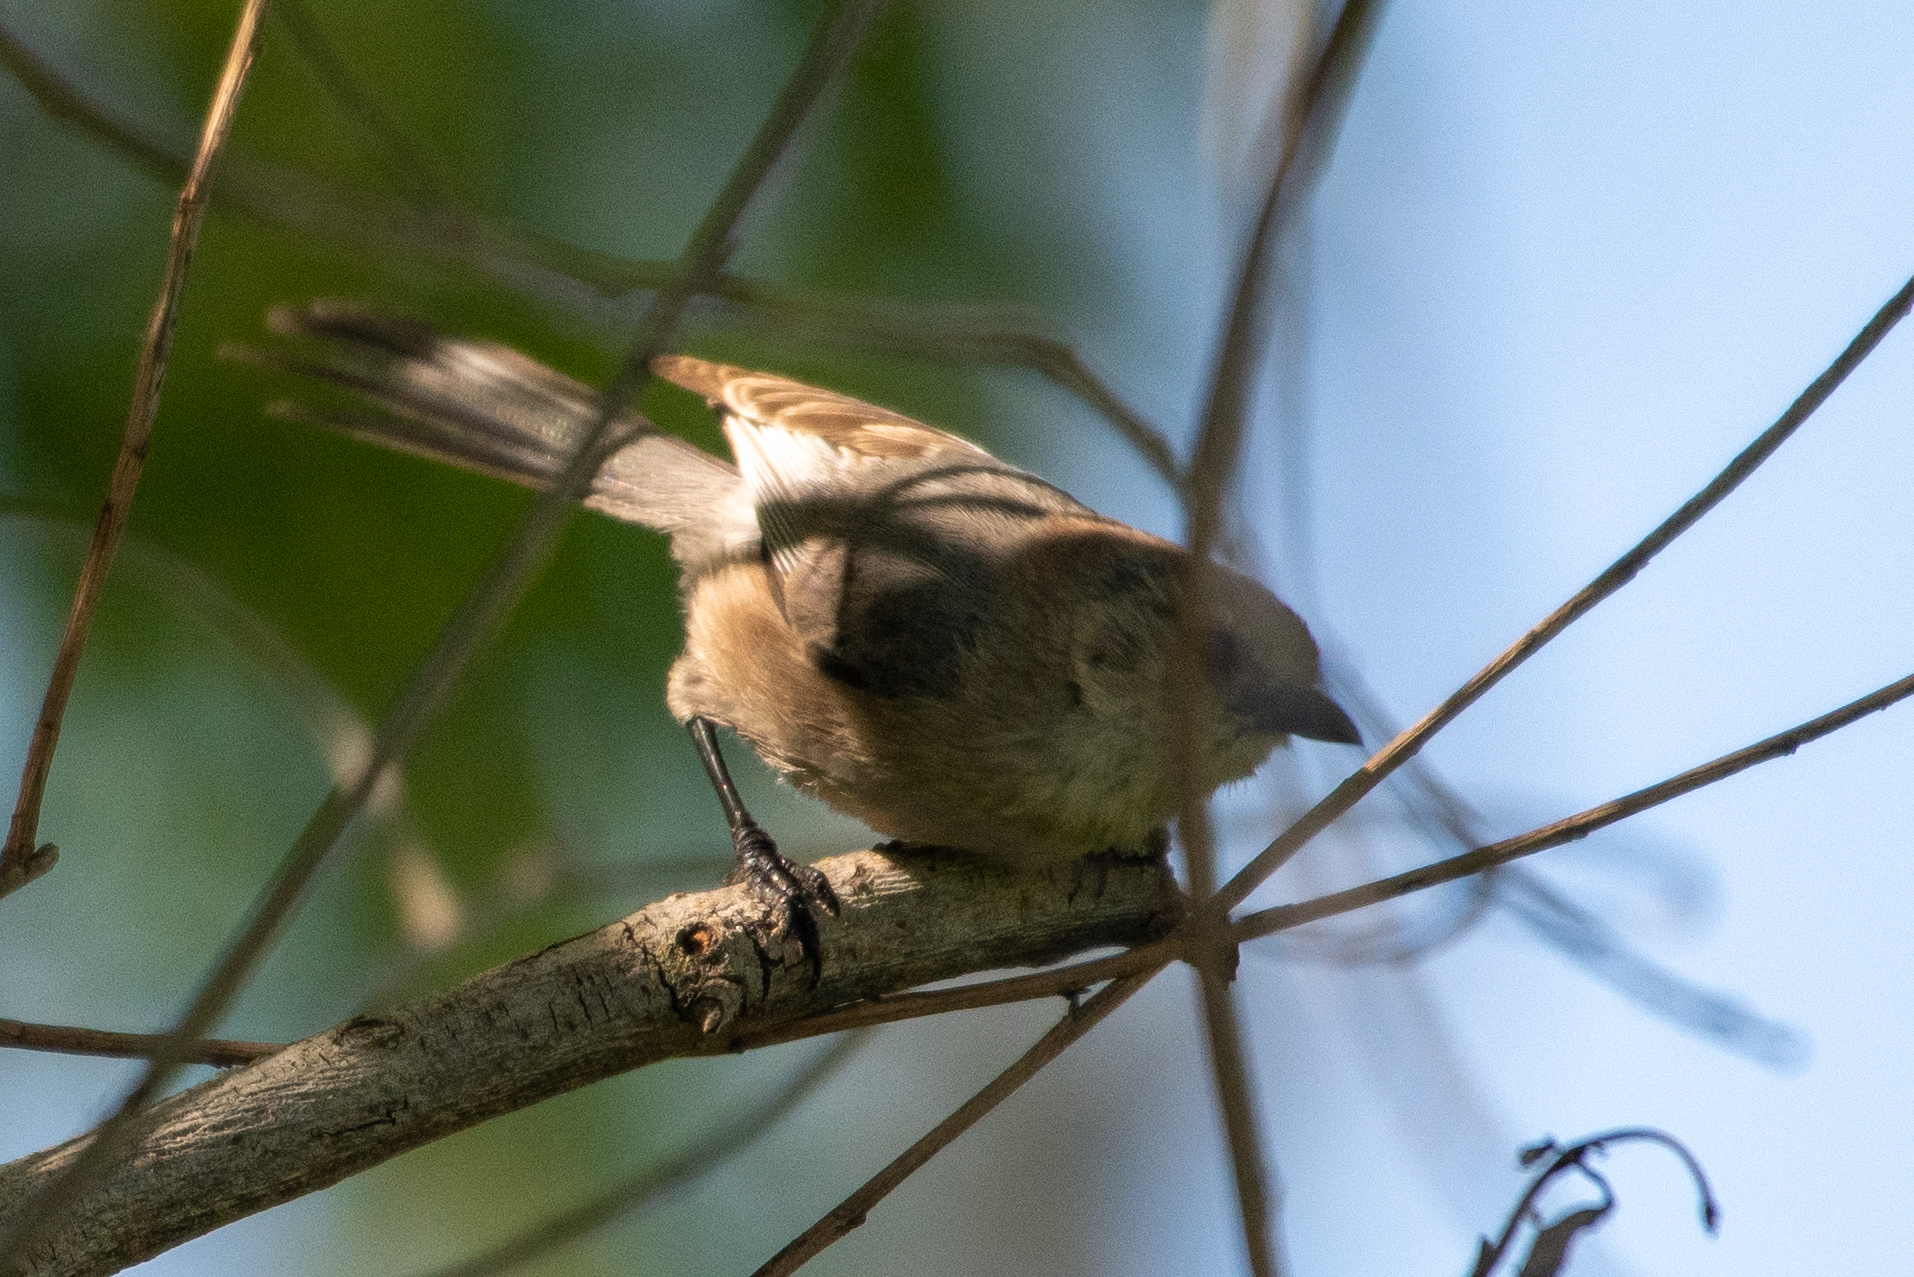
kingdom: Animalia
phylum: Chordata
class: Aves
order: Passeriformes
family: Aegithalidae
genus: Psaltriparus
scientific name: Psaltriparus minimus
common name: American bushtit
